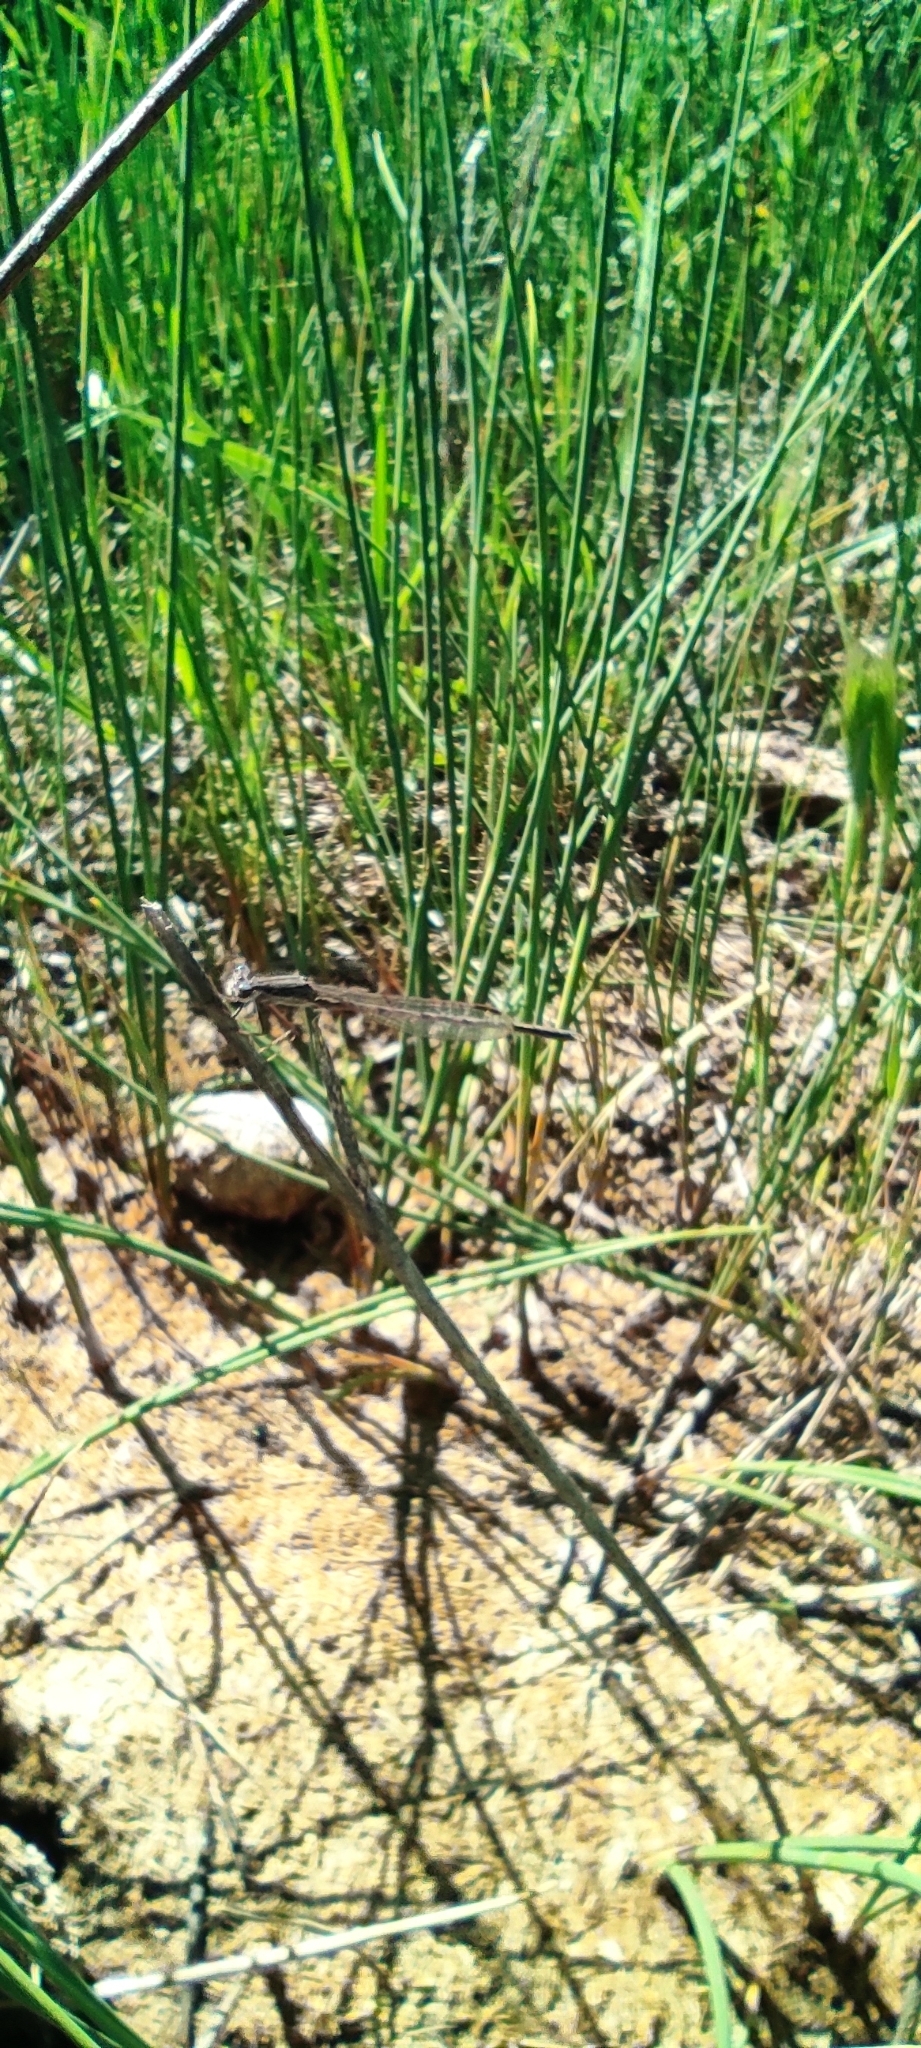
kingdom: Animalia
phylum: Arthropoda
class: Insecta
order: Odonata
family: Lestidae
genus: Sympecma
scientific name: Sympecma fusca
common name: Common winter damsel
